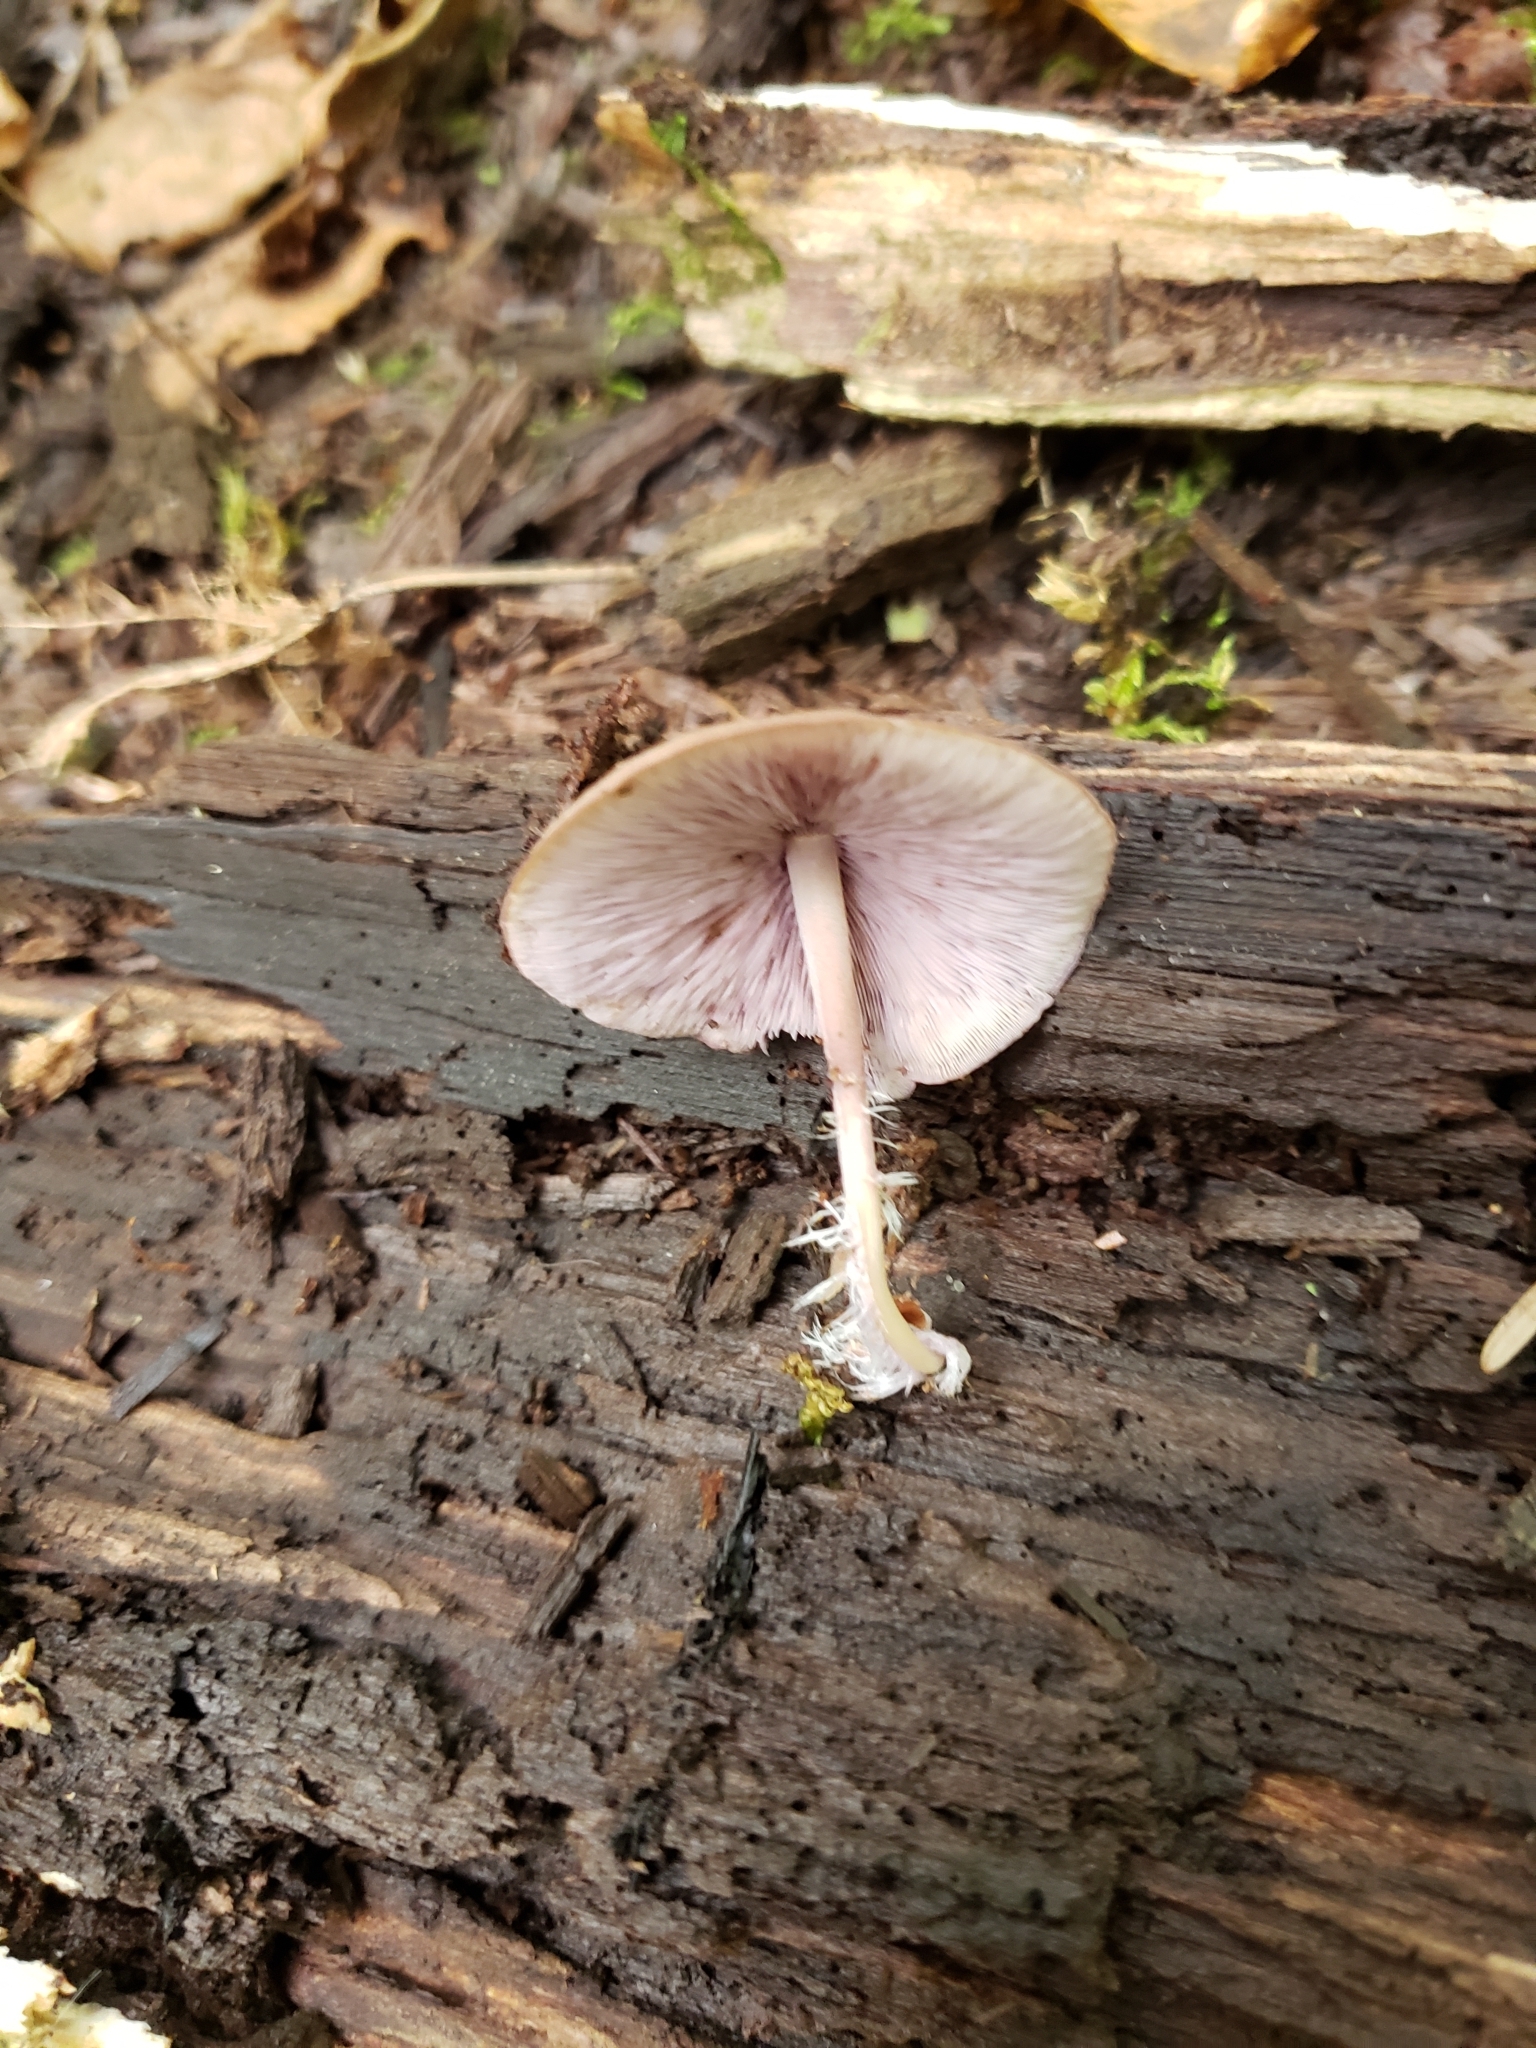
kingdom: Fungi
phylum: Basidiomycota
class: Agaricomycetes
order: Agaricales
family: Marasmiaceae
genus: Baeospora
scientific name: Baeospora myriadophylla
